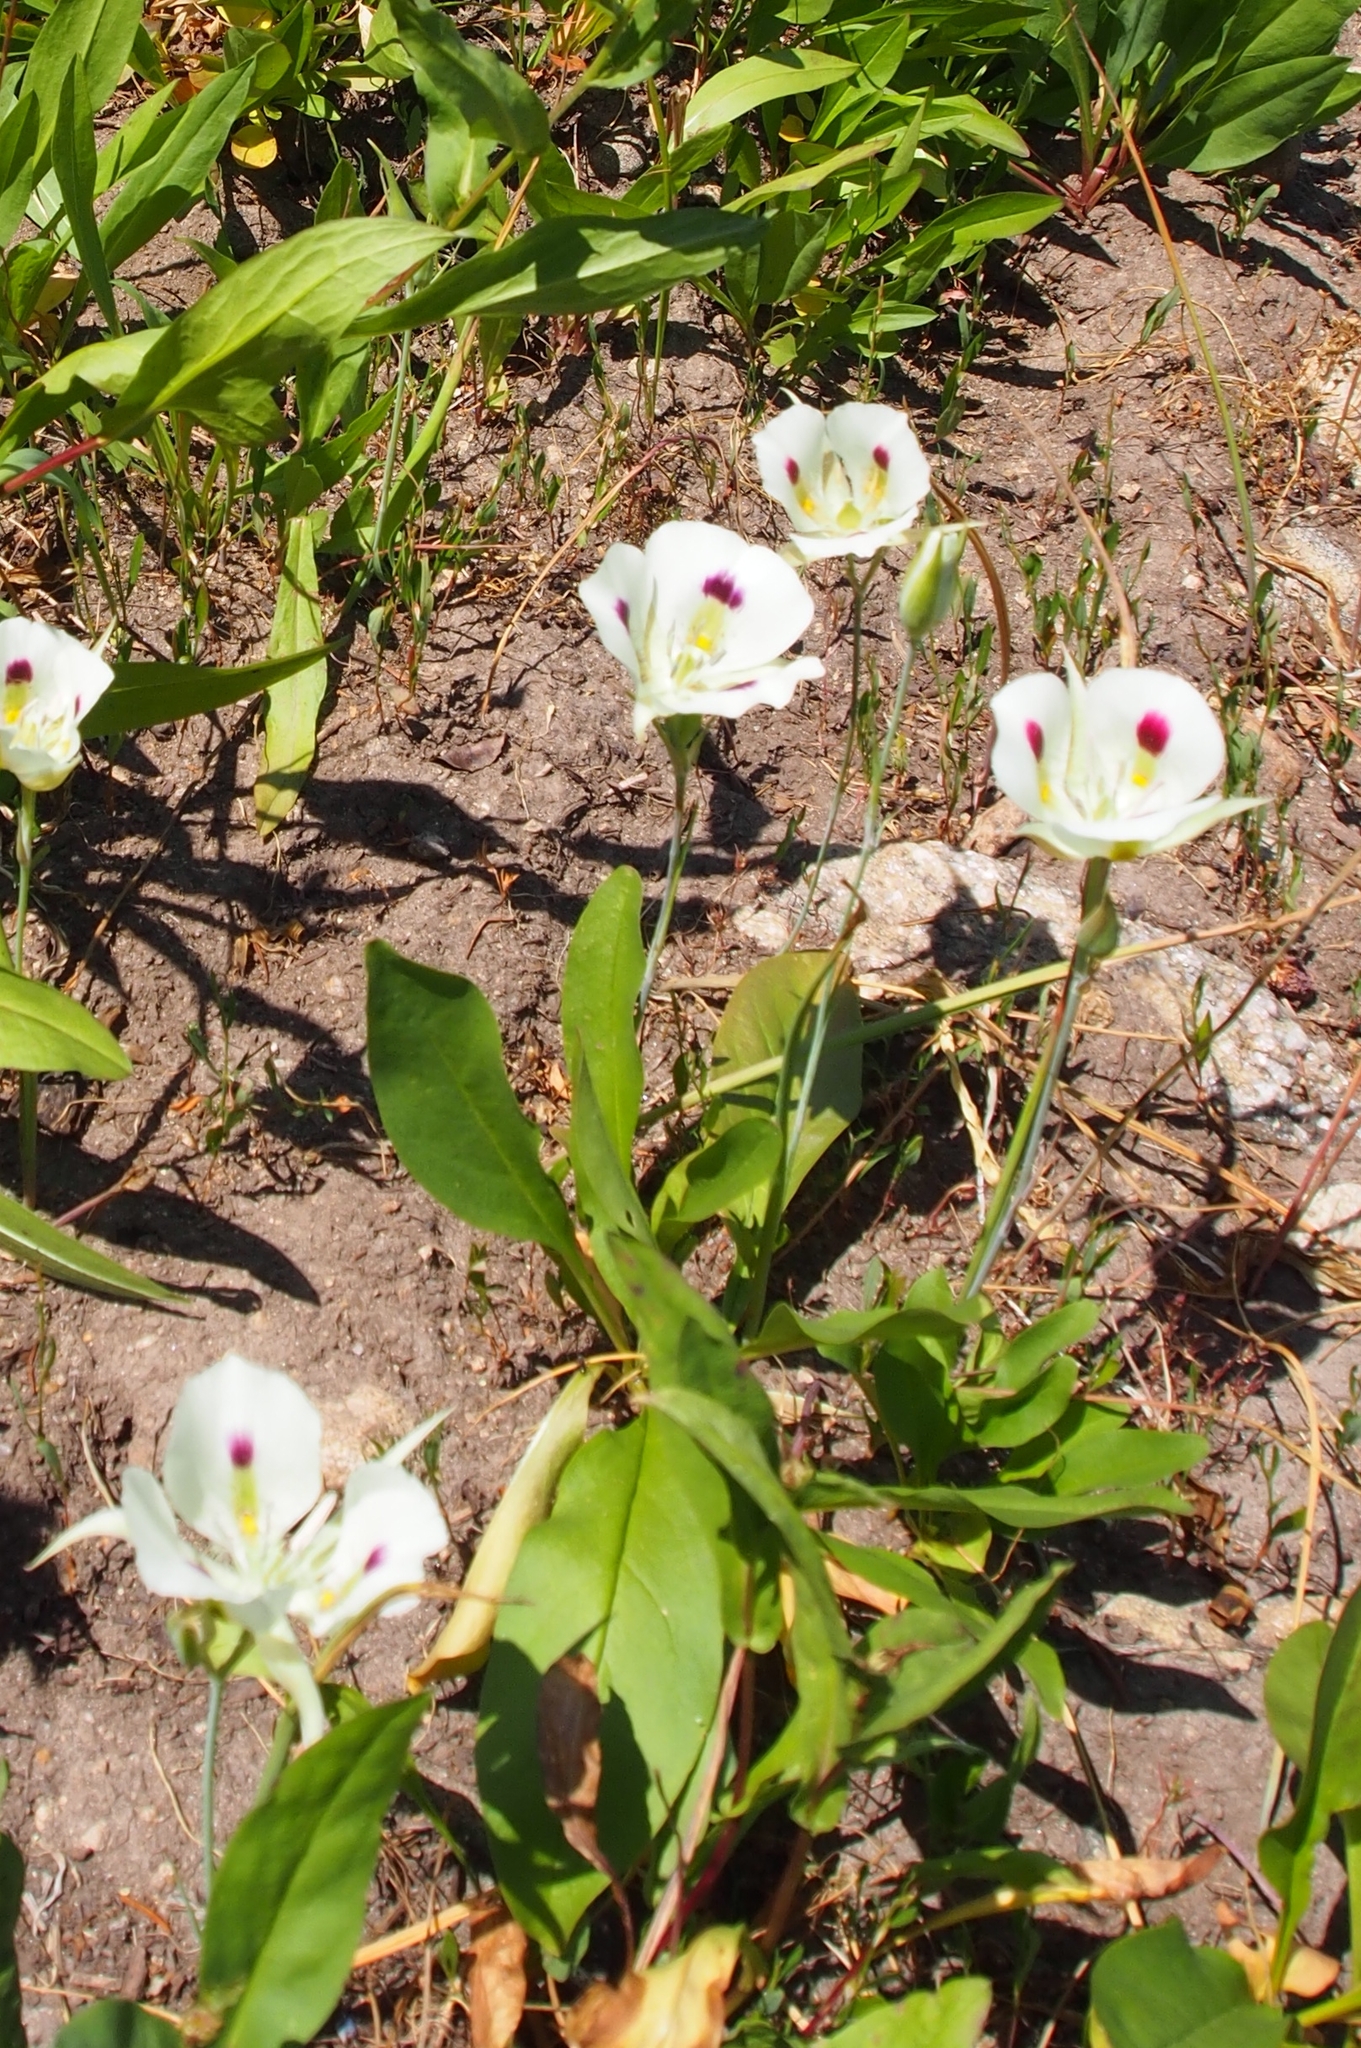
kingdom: Plantae
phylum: Tracheophyta
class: Liliopsida
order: Liliales
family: Liliaceae
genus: Calochortus
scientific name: Calochortus eurycarpus
